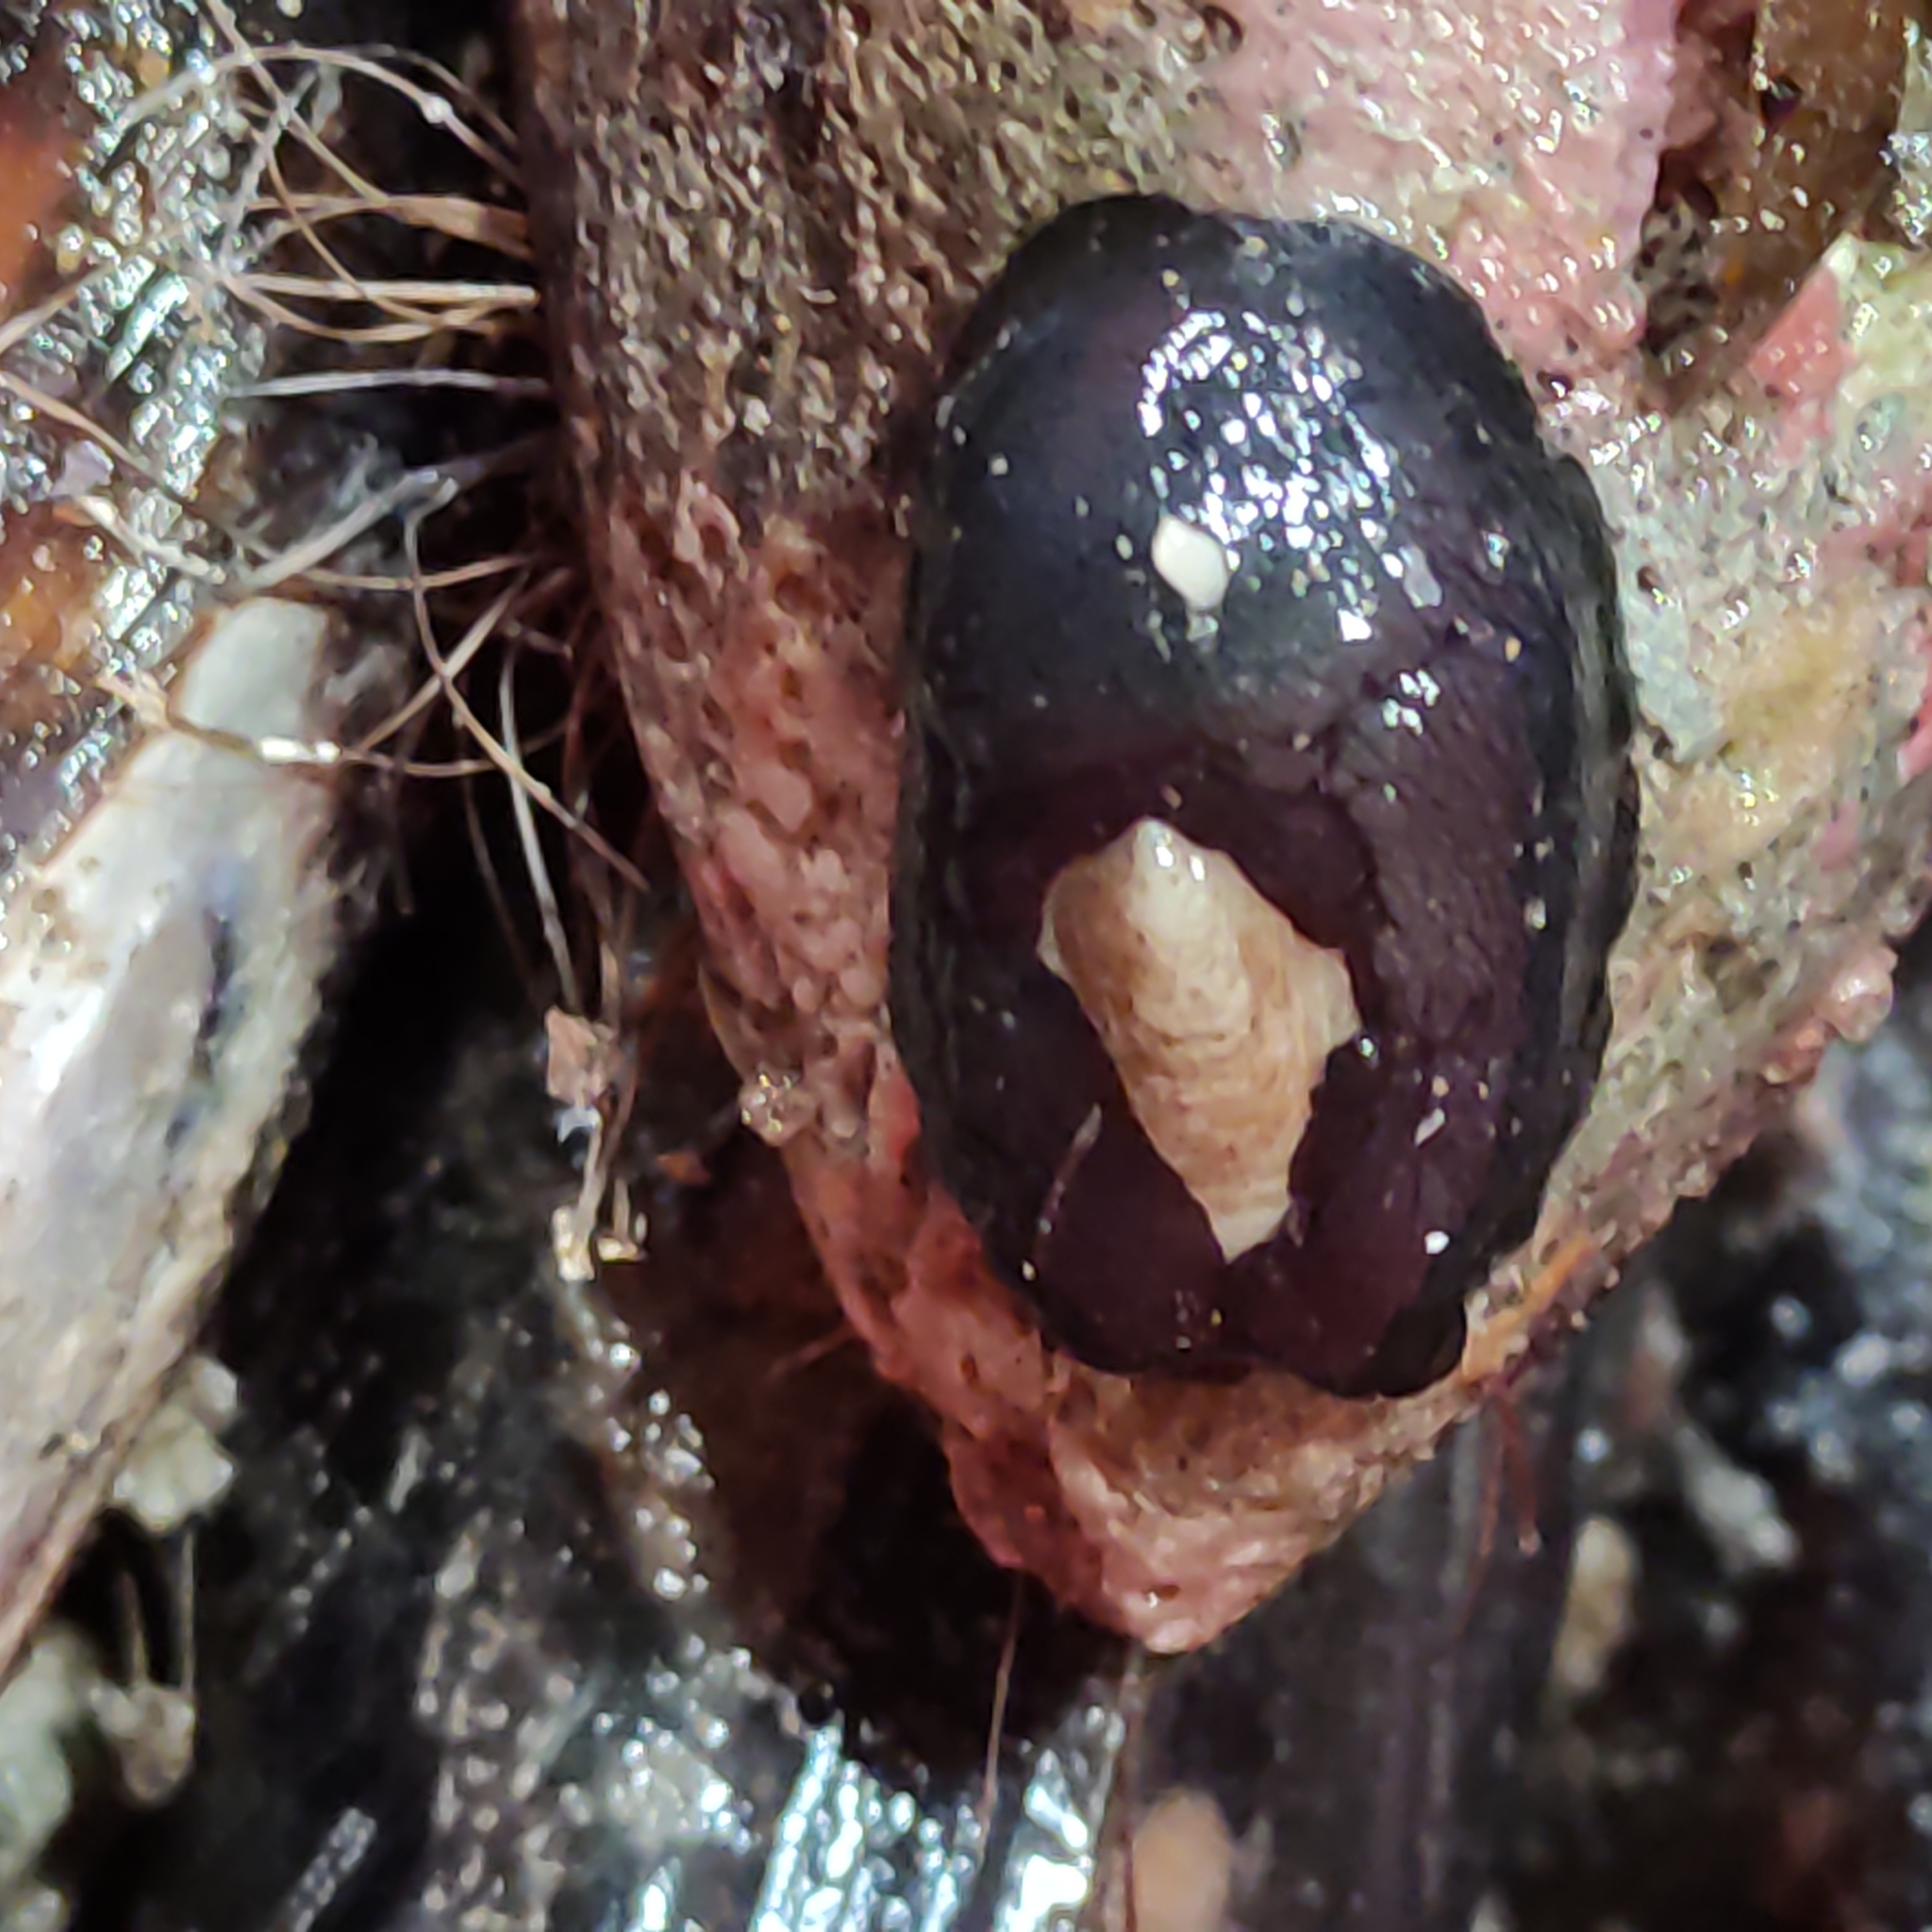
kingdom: Animalia
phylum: Mollusca
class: Gastropoda
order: Lepetellida
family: Fissurellidae
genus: Scutus
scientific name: Scutus breviculus
